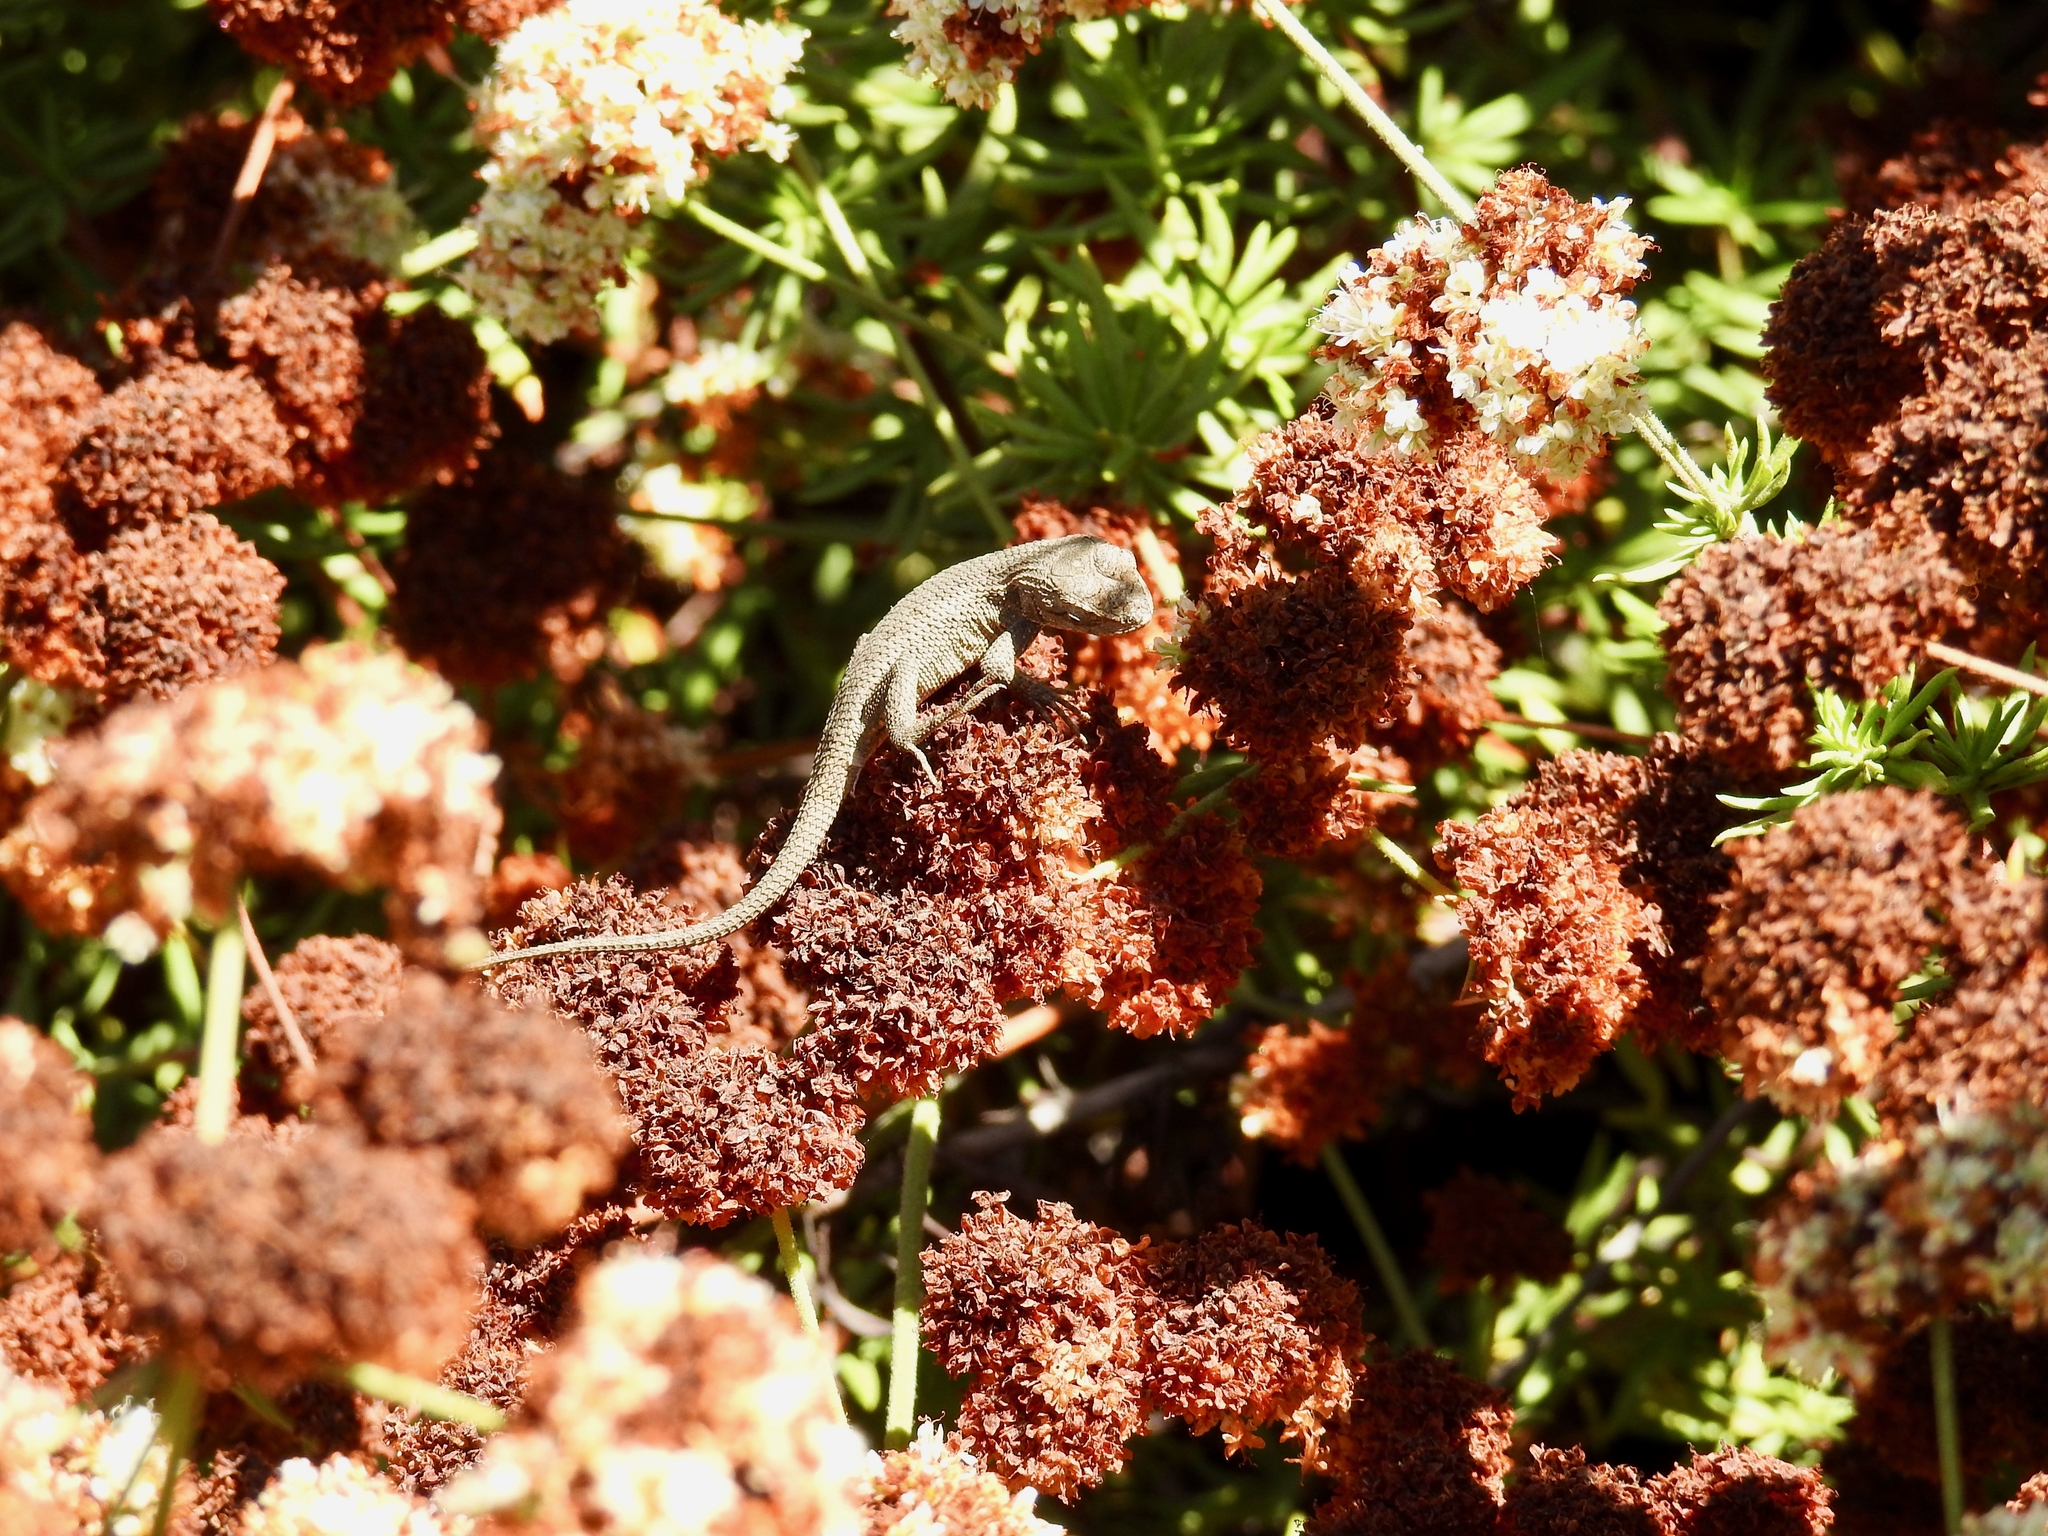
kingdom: Animalia
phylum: Chordata
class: Squamata
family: Phrynosomatidae
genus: Sceloporus
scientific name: Sceloporus occidentalis
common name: Western fence lizard
